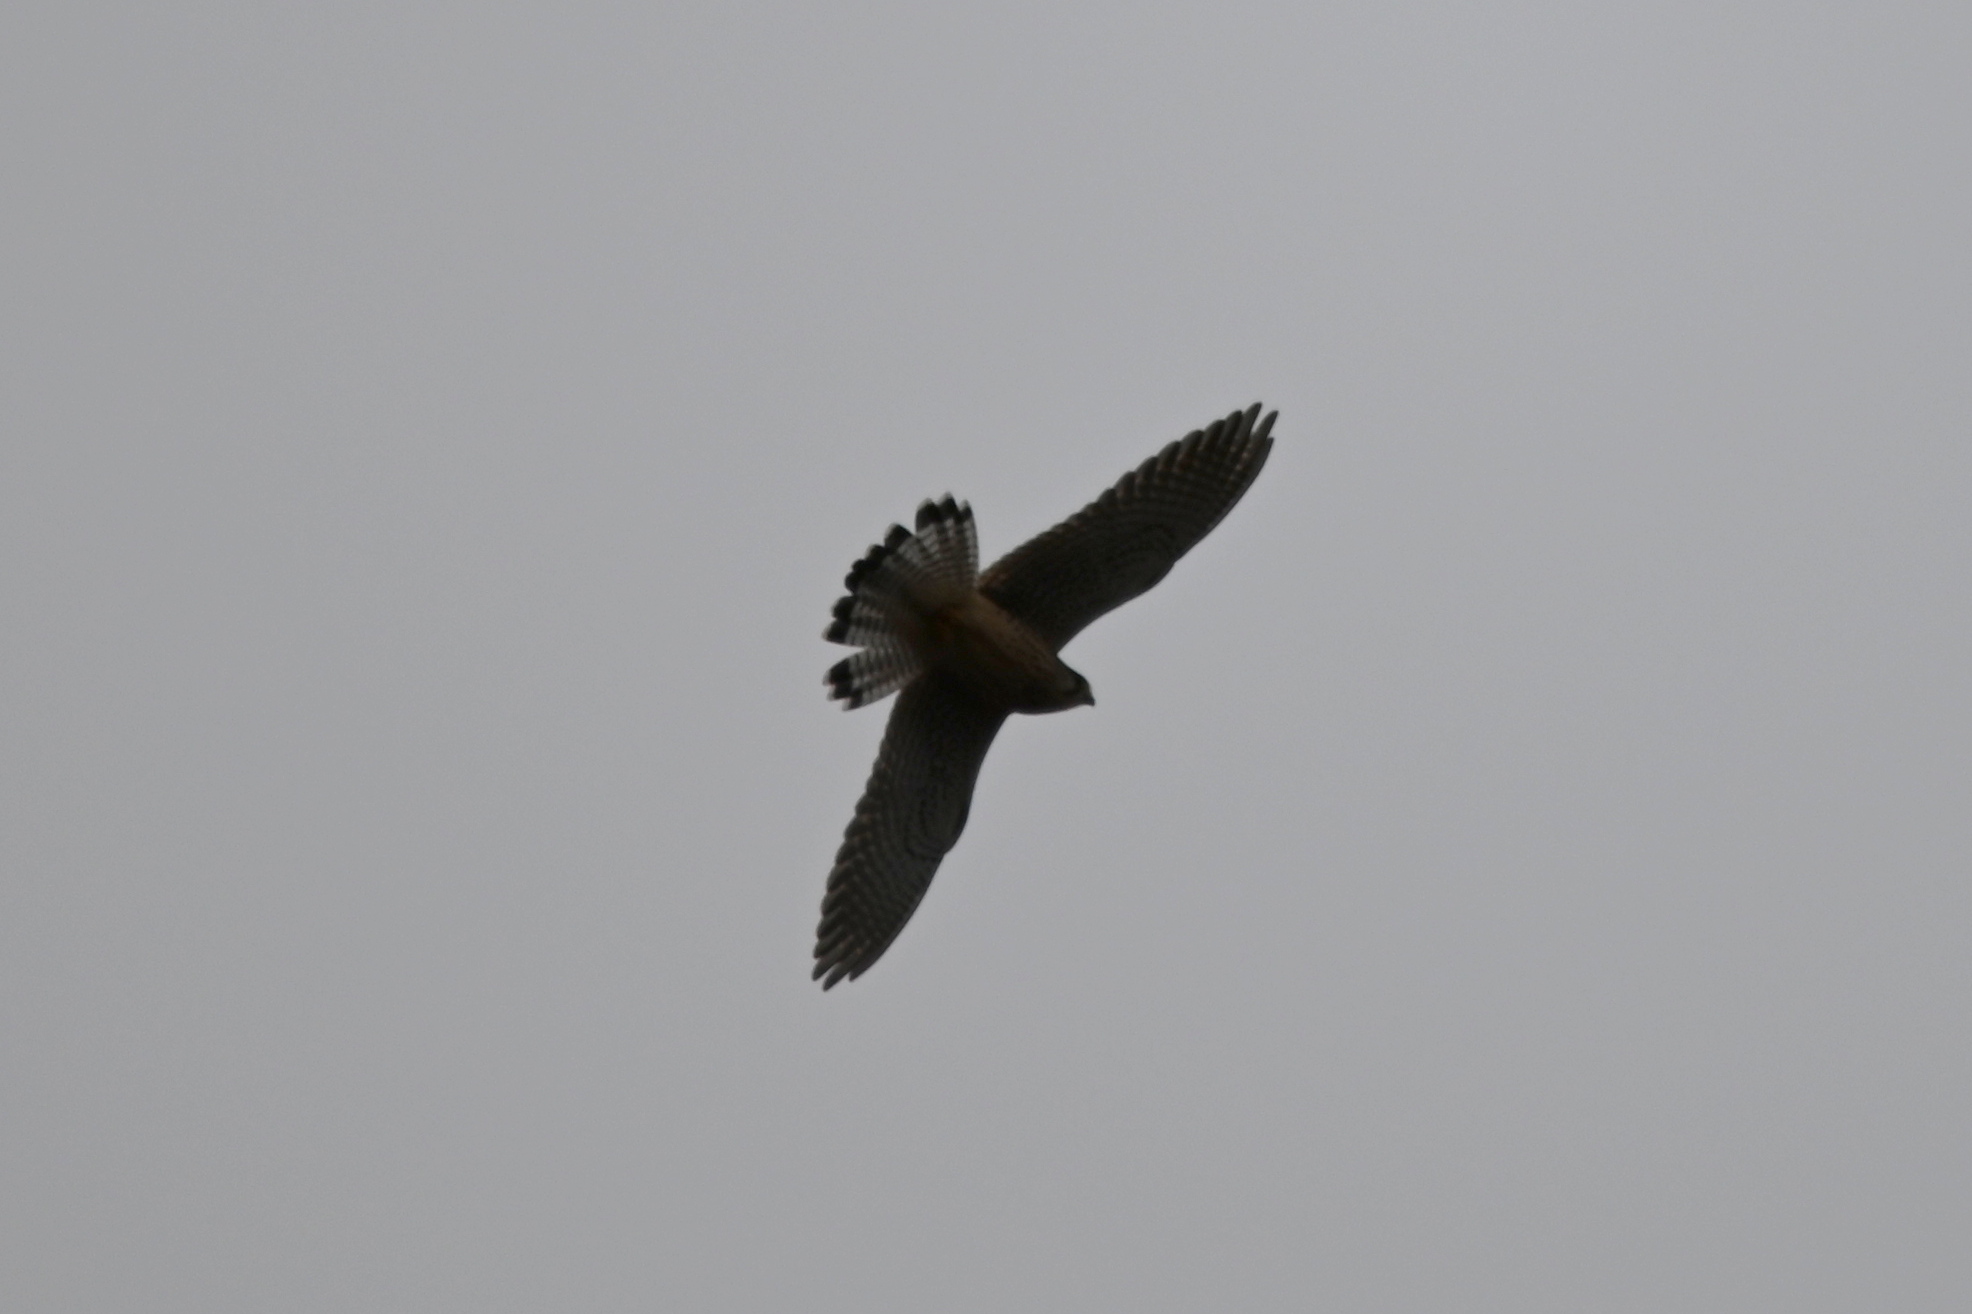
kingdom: Animalia
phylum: Chordata
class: Aves
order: Falconiformes
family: Falconidae
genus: Falco
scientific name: Falco tinnunculus
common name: Common kestrel
